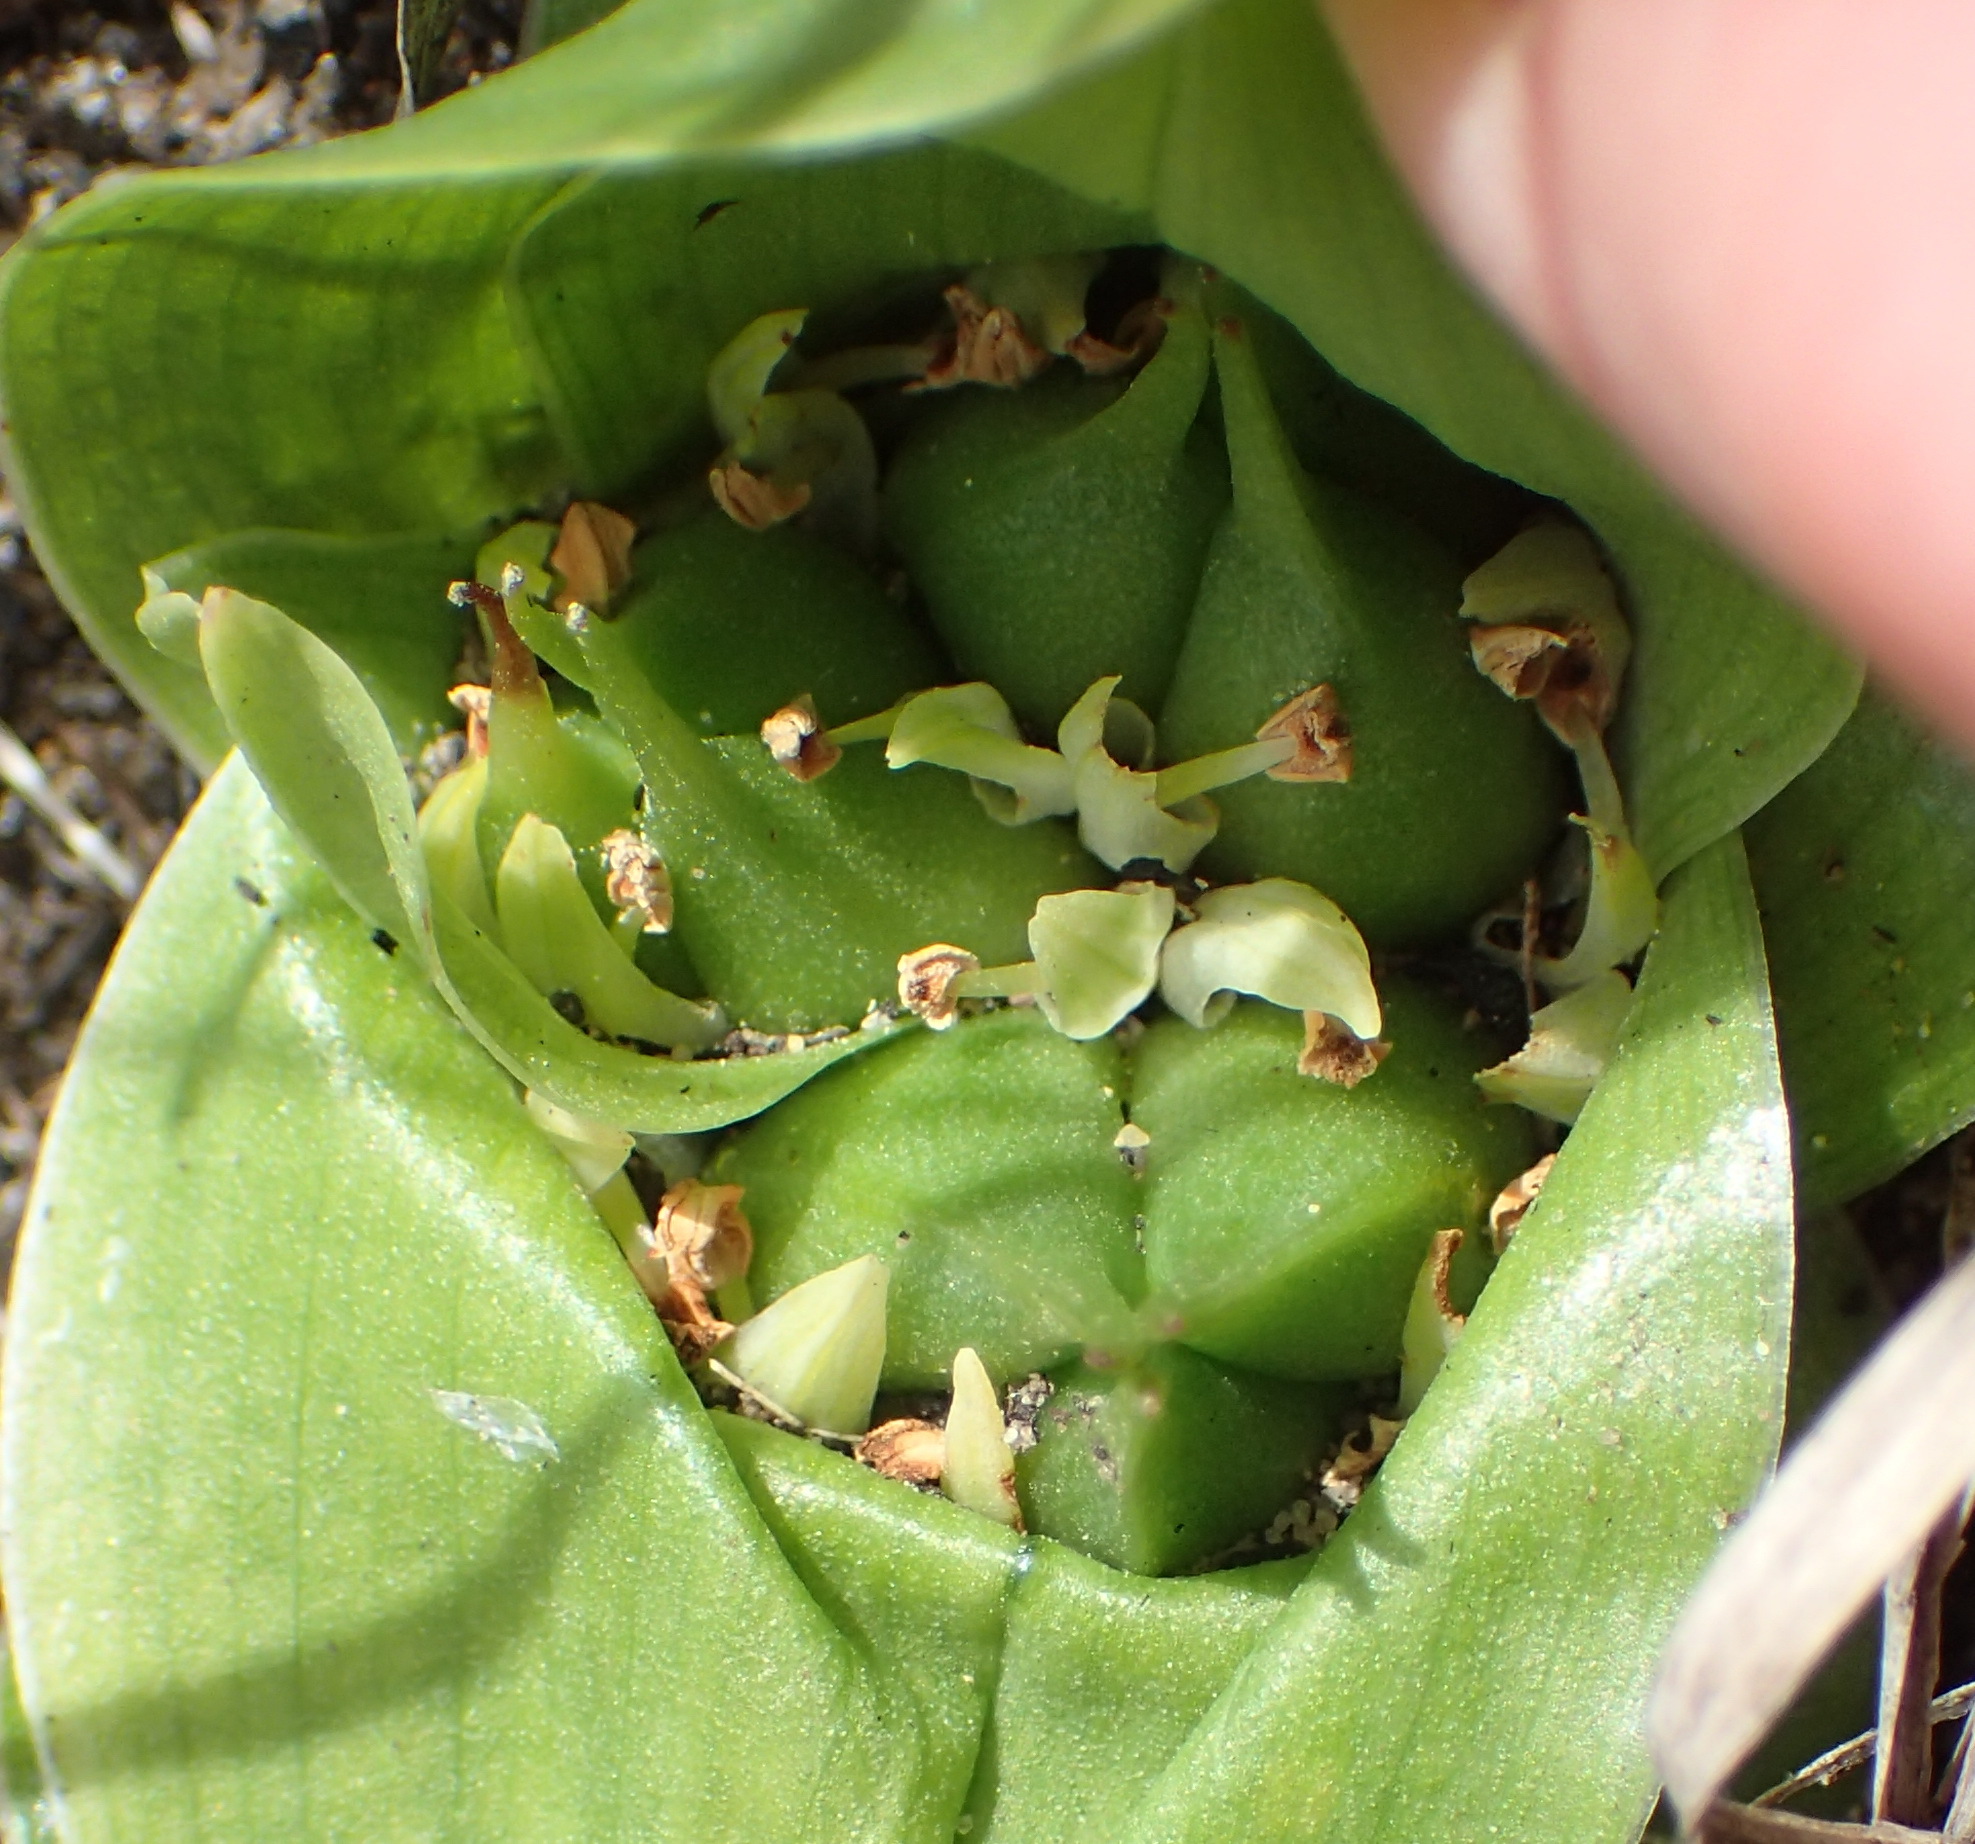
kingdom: Plantae
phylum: Tracheophyta
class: Liliopsida
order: Liliales
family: Colchicaceae
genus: Colchicum
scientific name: Colchicum eucomoides
